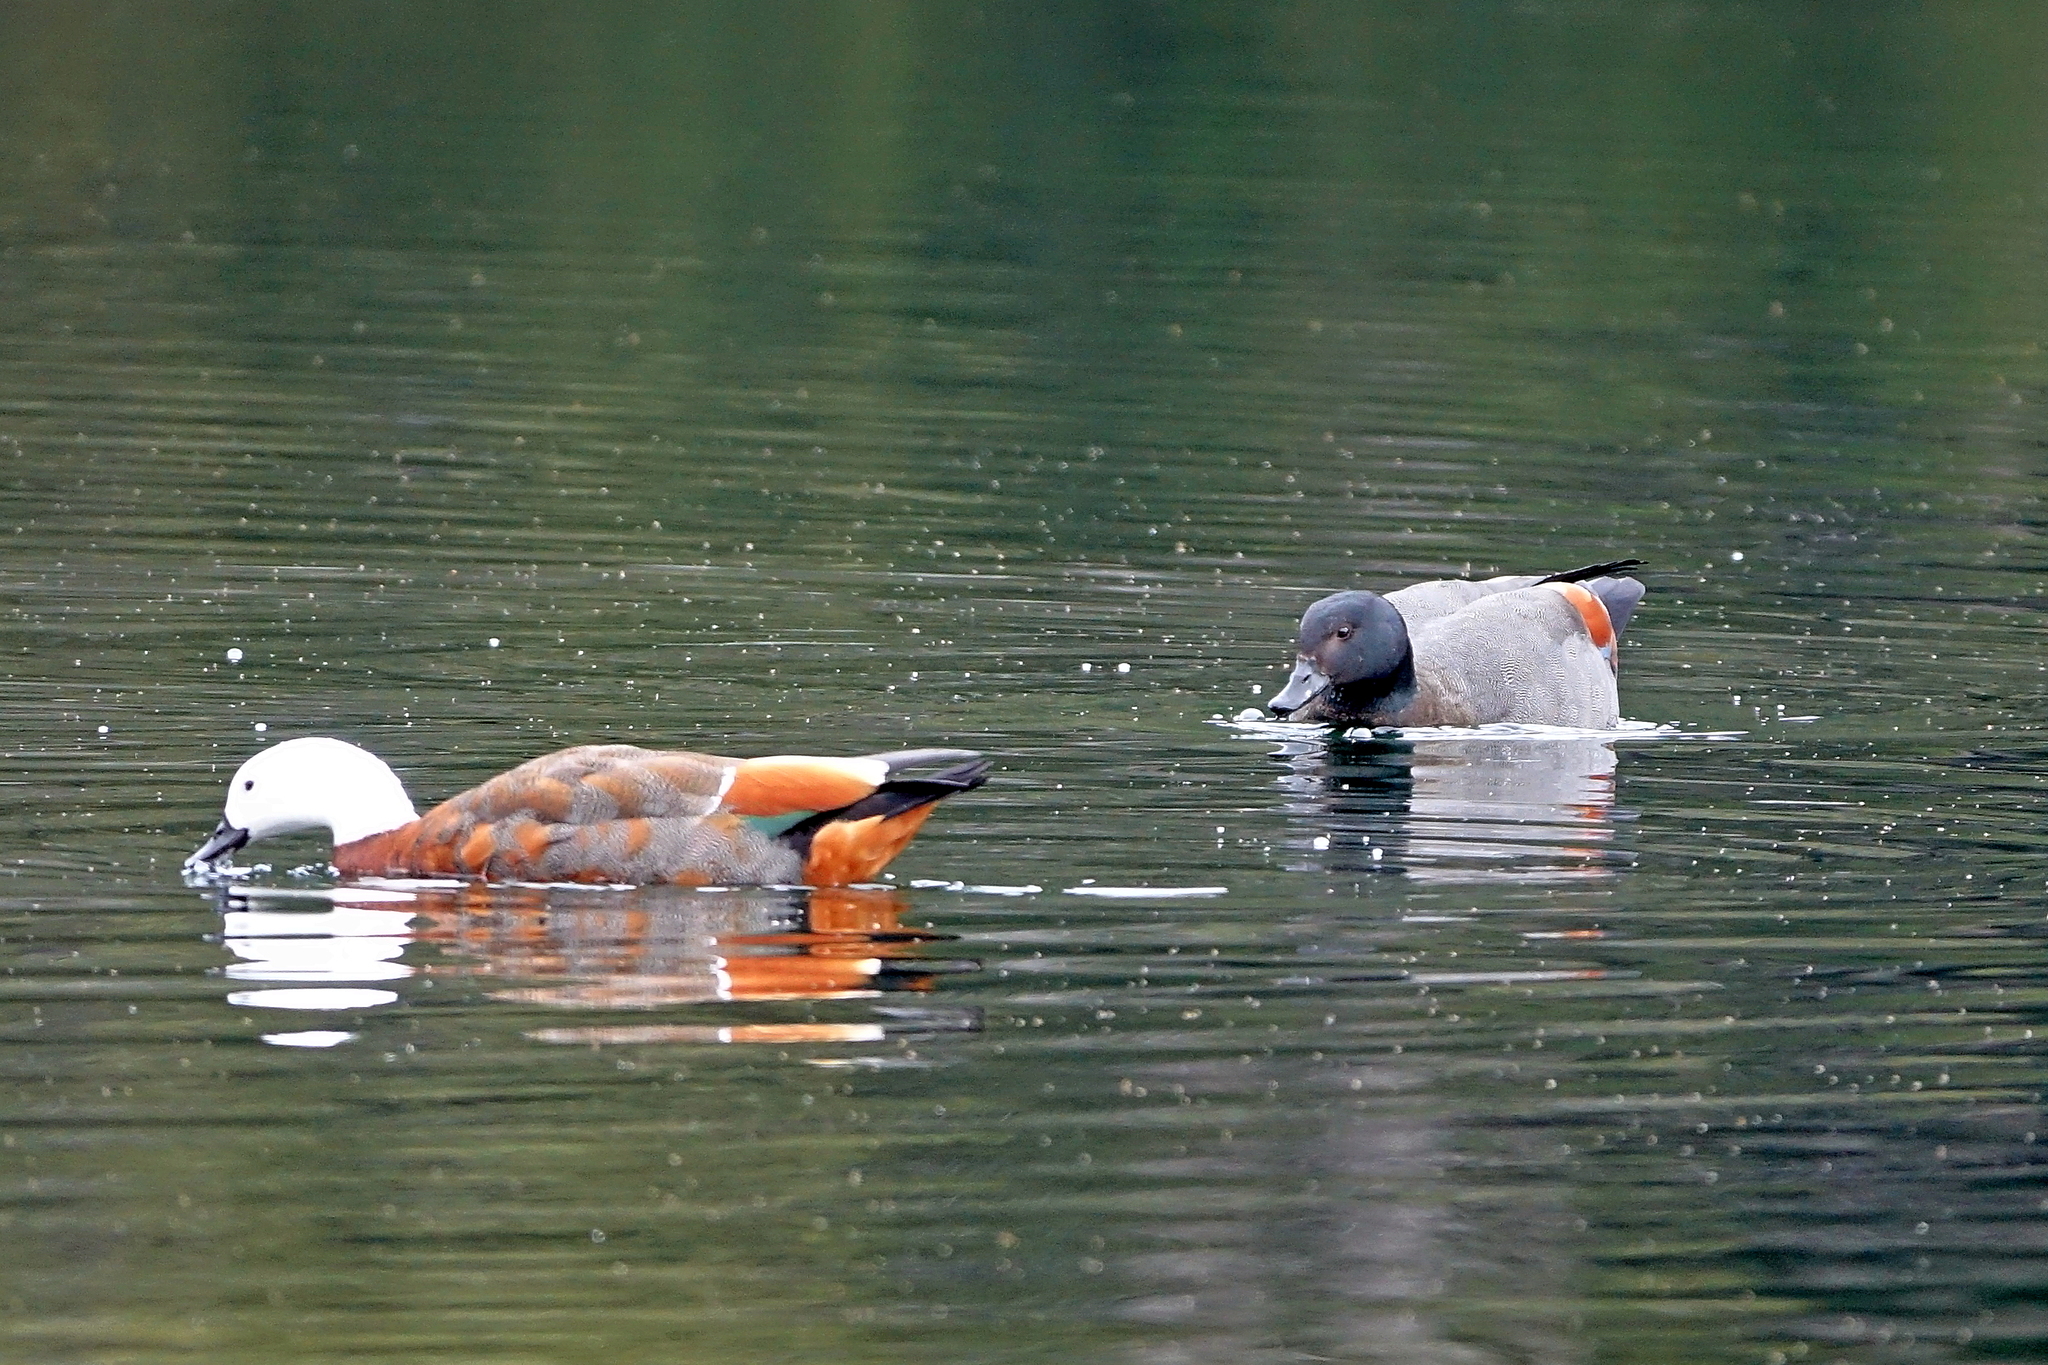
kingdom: Animalia
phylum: Chordata
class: Aves
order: Anseriformes
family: Anatidae
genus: Tadorna
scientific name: Tadorna variegata
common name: Paradise shelduck
